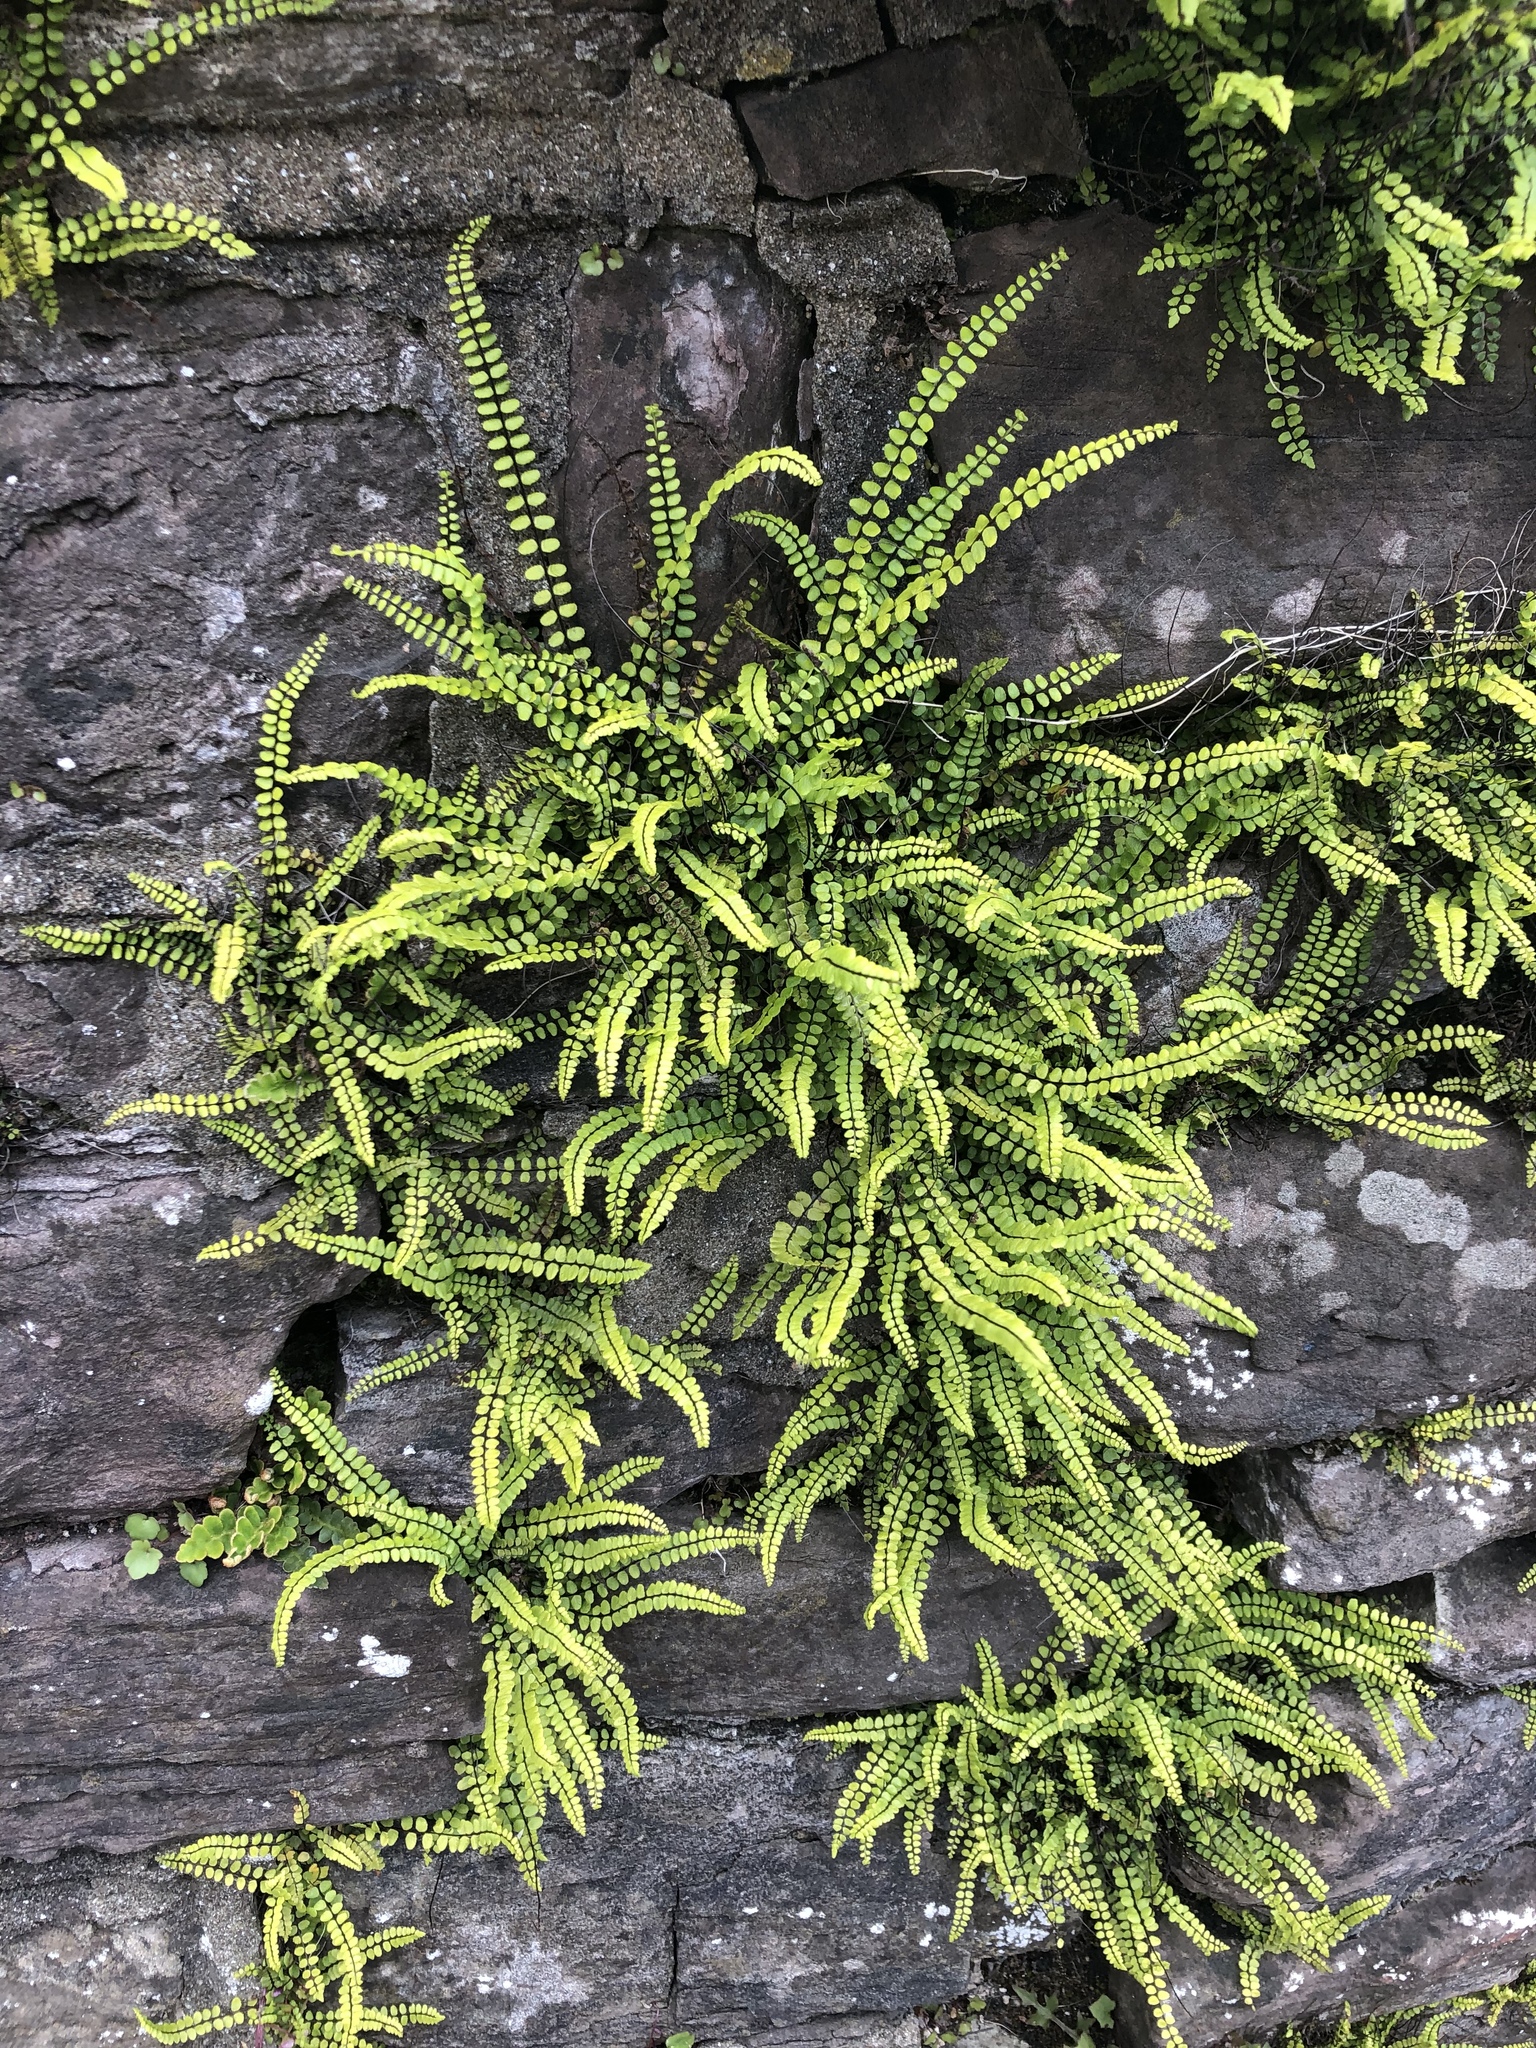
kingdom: Plantae
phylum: Tracheophyta
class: Polypodiopsida
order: Polypodiales
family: Aspleniaceae
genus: Asplenium
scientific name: Asplenium trichomanes
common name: Maidenhair spleenwort
